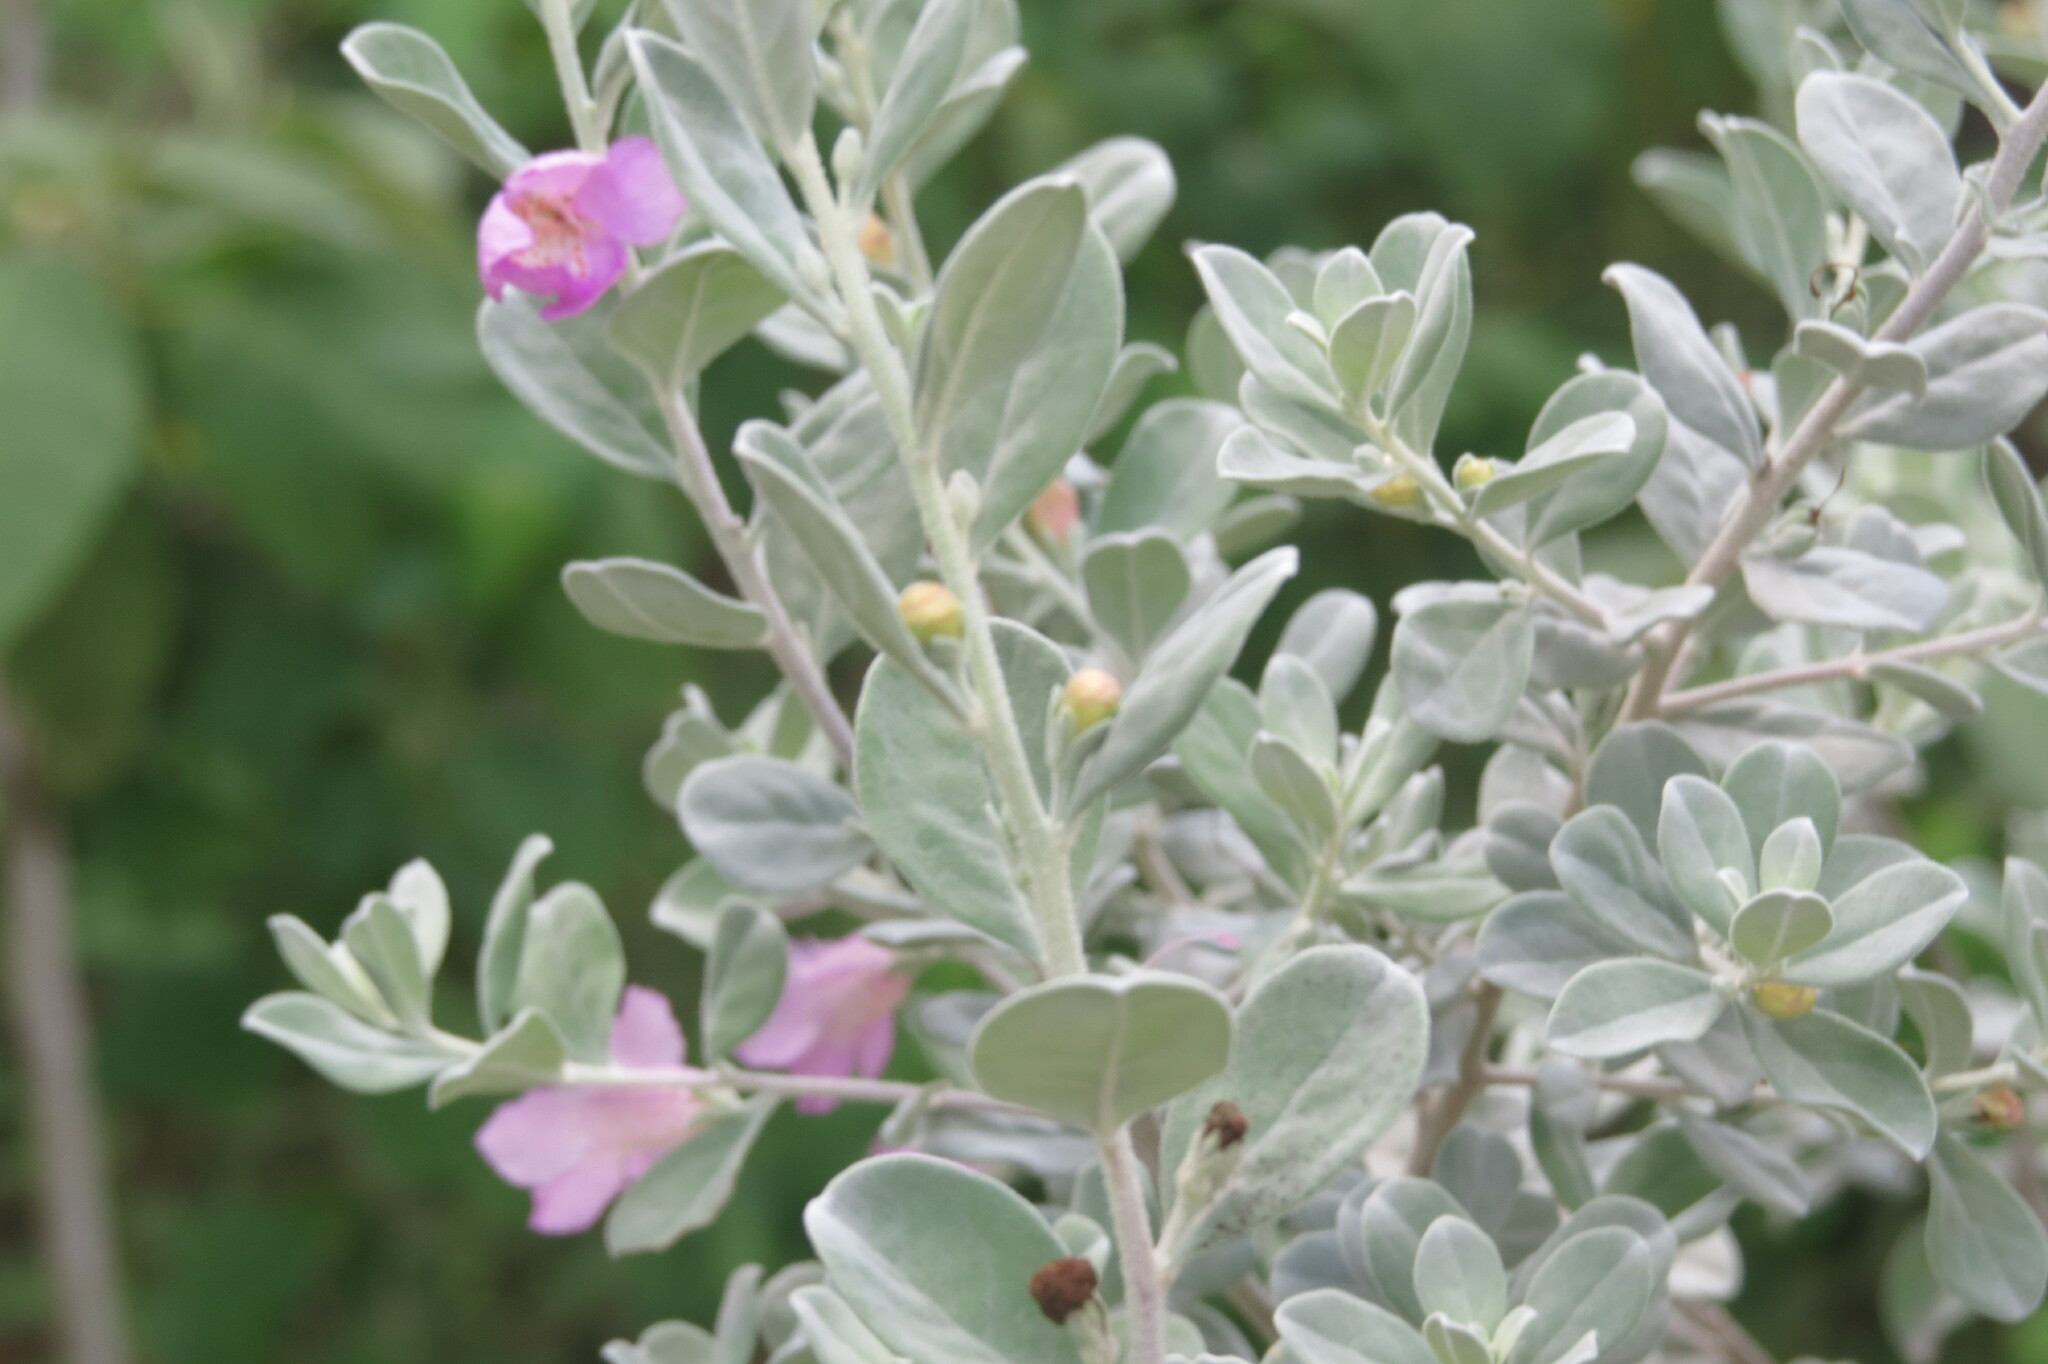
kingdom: Plantae
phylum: Tracheophyta
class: Magnoliopsida
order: Lamiales
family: Scrophulariaceae
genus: Leucophyllum
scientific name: Leucophyllum frutescens
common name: Texas silverleaf
